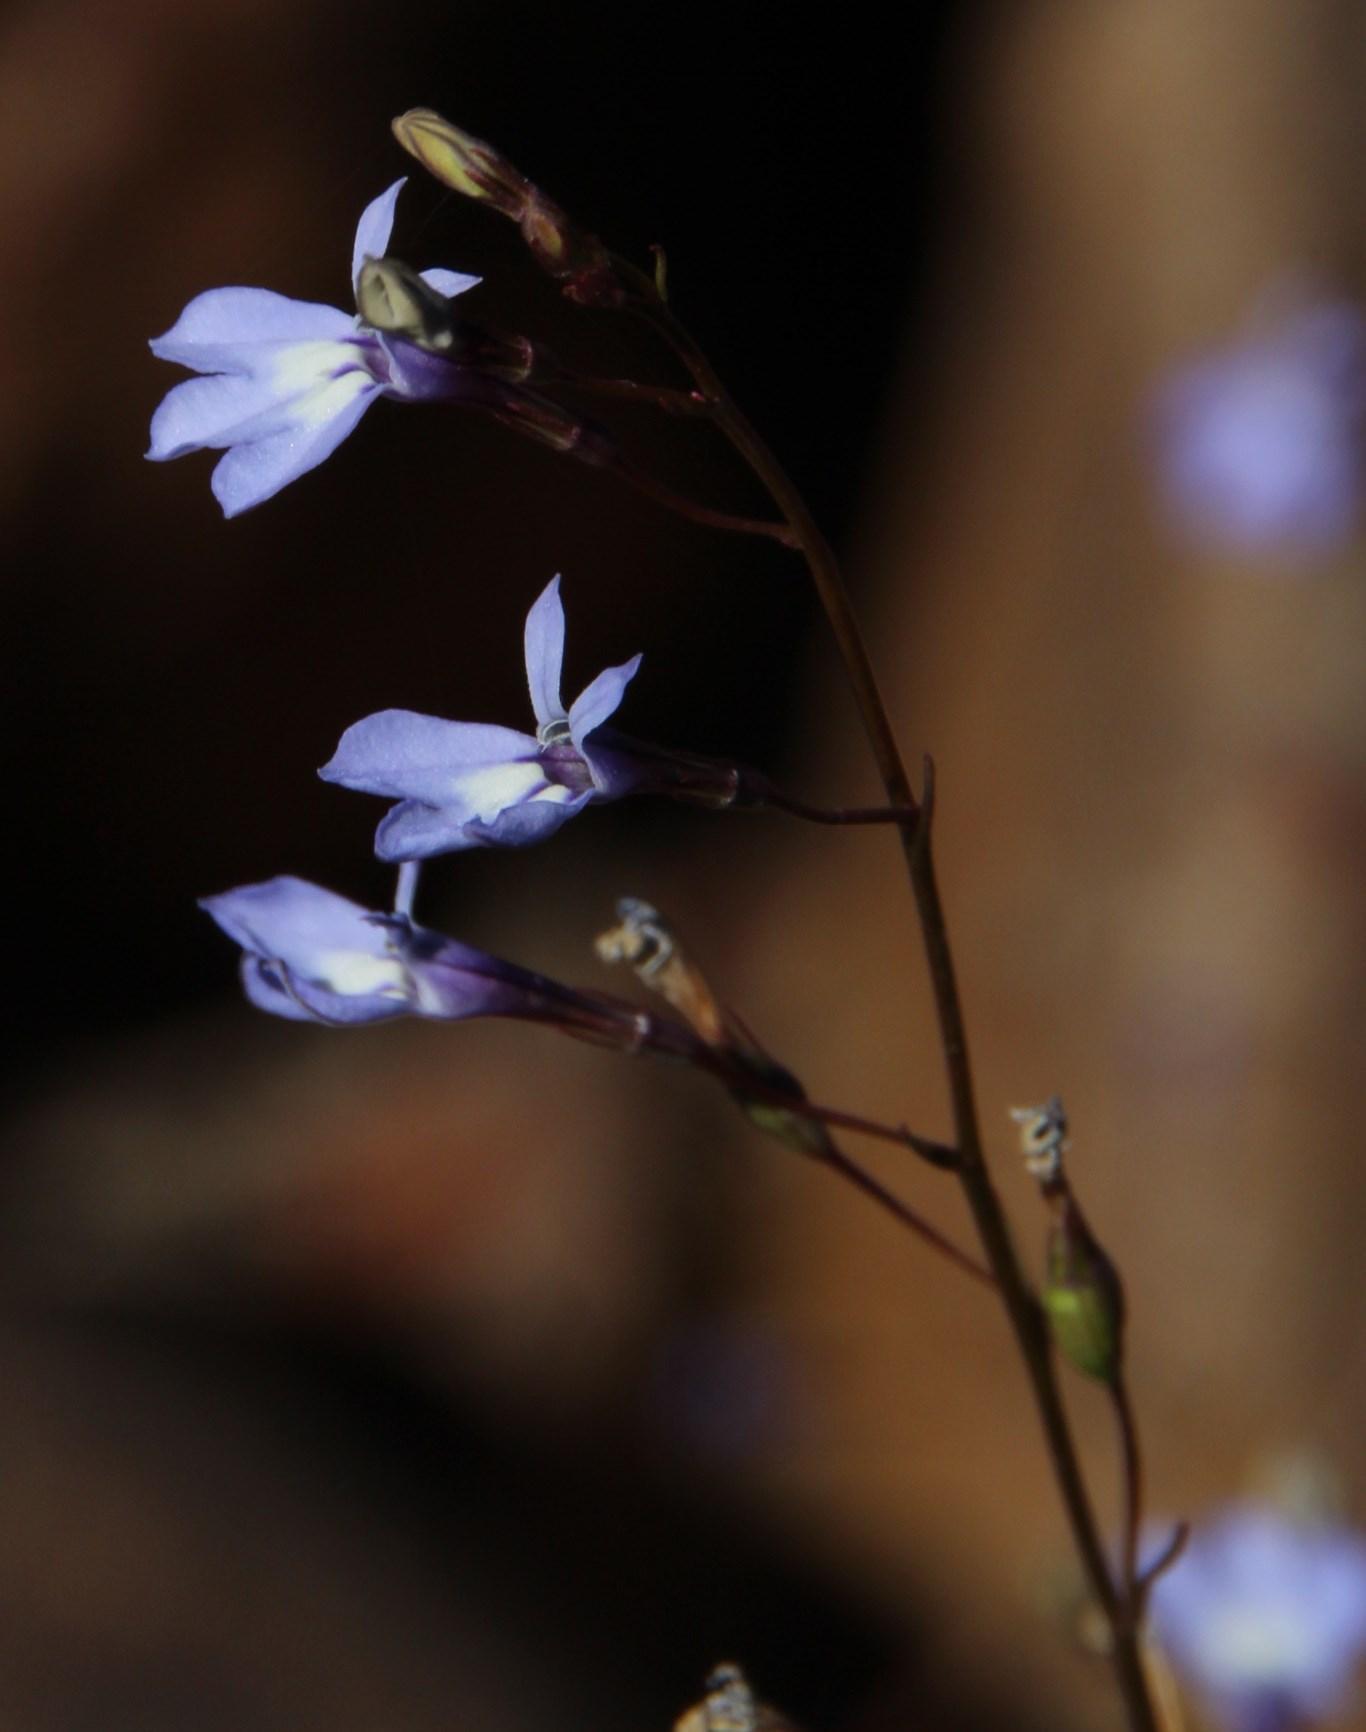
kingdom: Plantae
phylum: Tracheophyta
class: Magnoliopsida
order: Asterales
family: Campanulaceae
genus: Wimmerella
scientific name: Wimmerella arabidea
